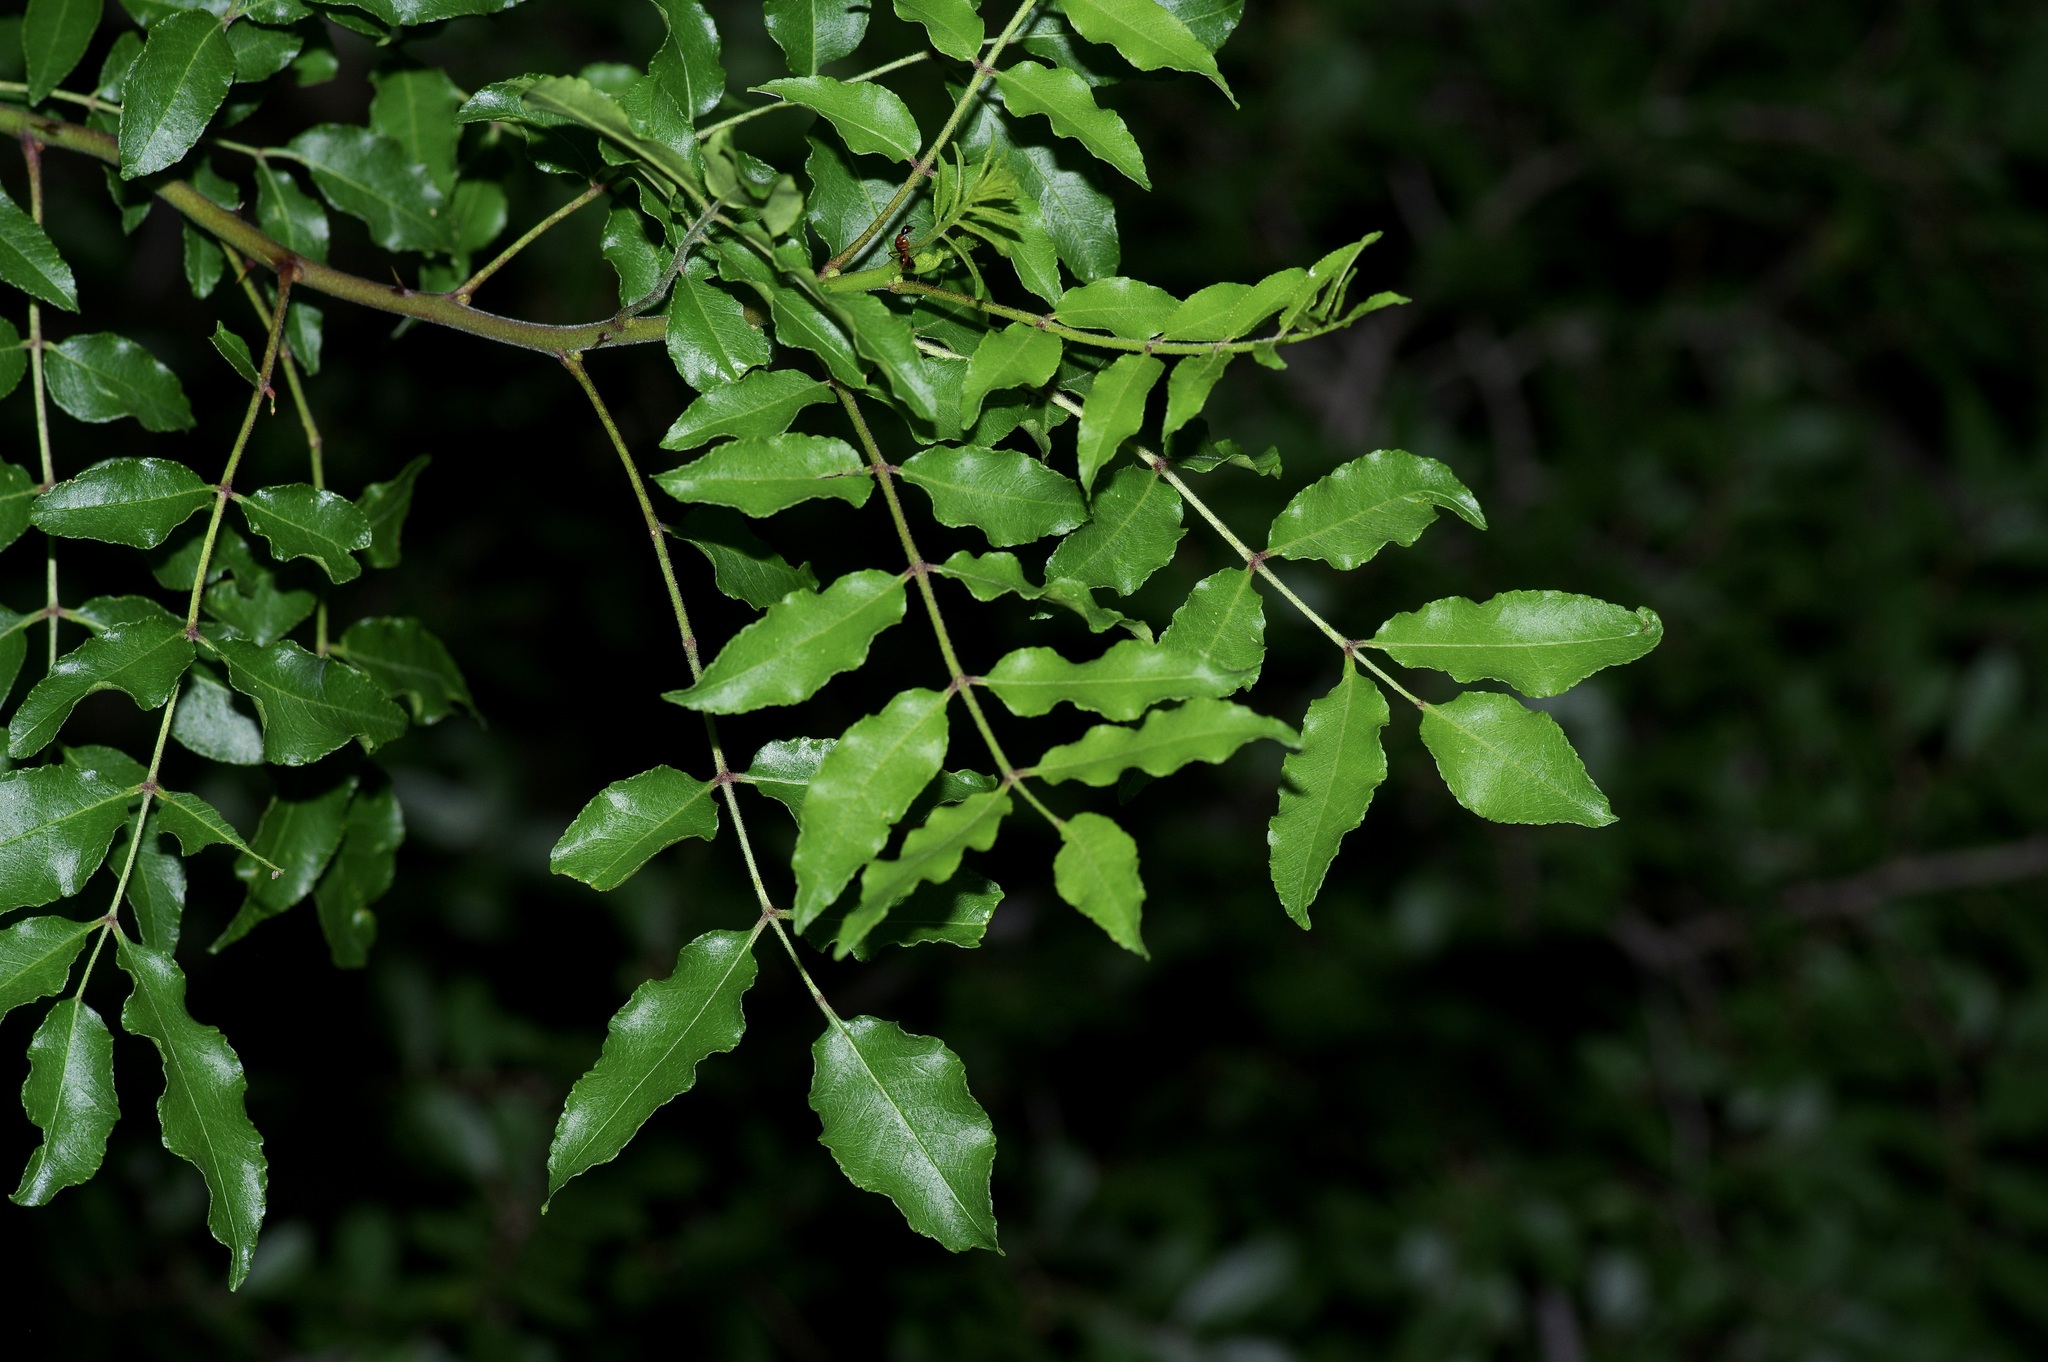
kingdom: Plantae
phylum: Tracheophyta
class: Magnoliopsida
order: Sapindales
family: Rutaceae
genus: Zanthoxylum
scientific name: Zanthoxylum clava-herculis
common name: Hercules'-club
